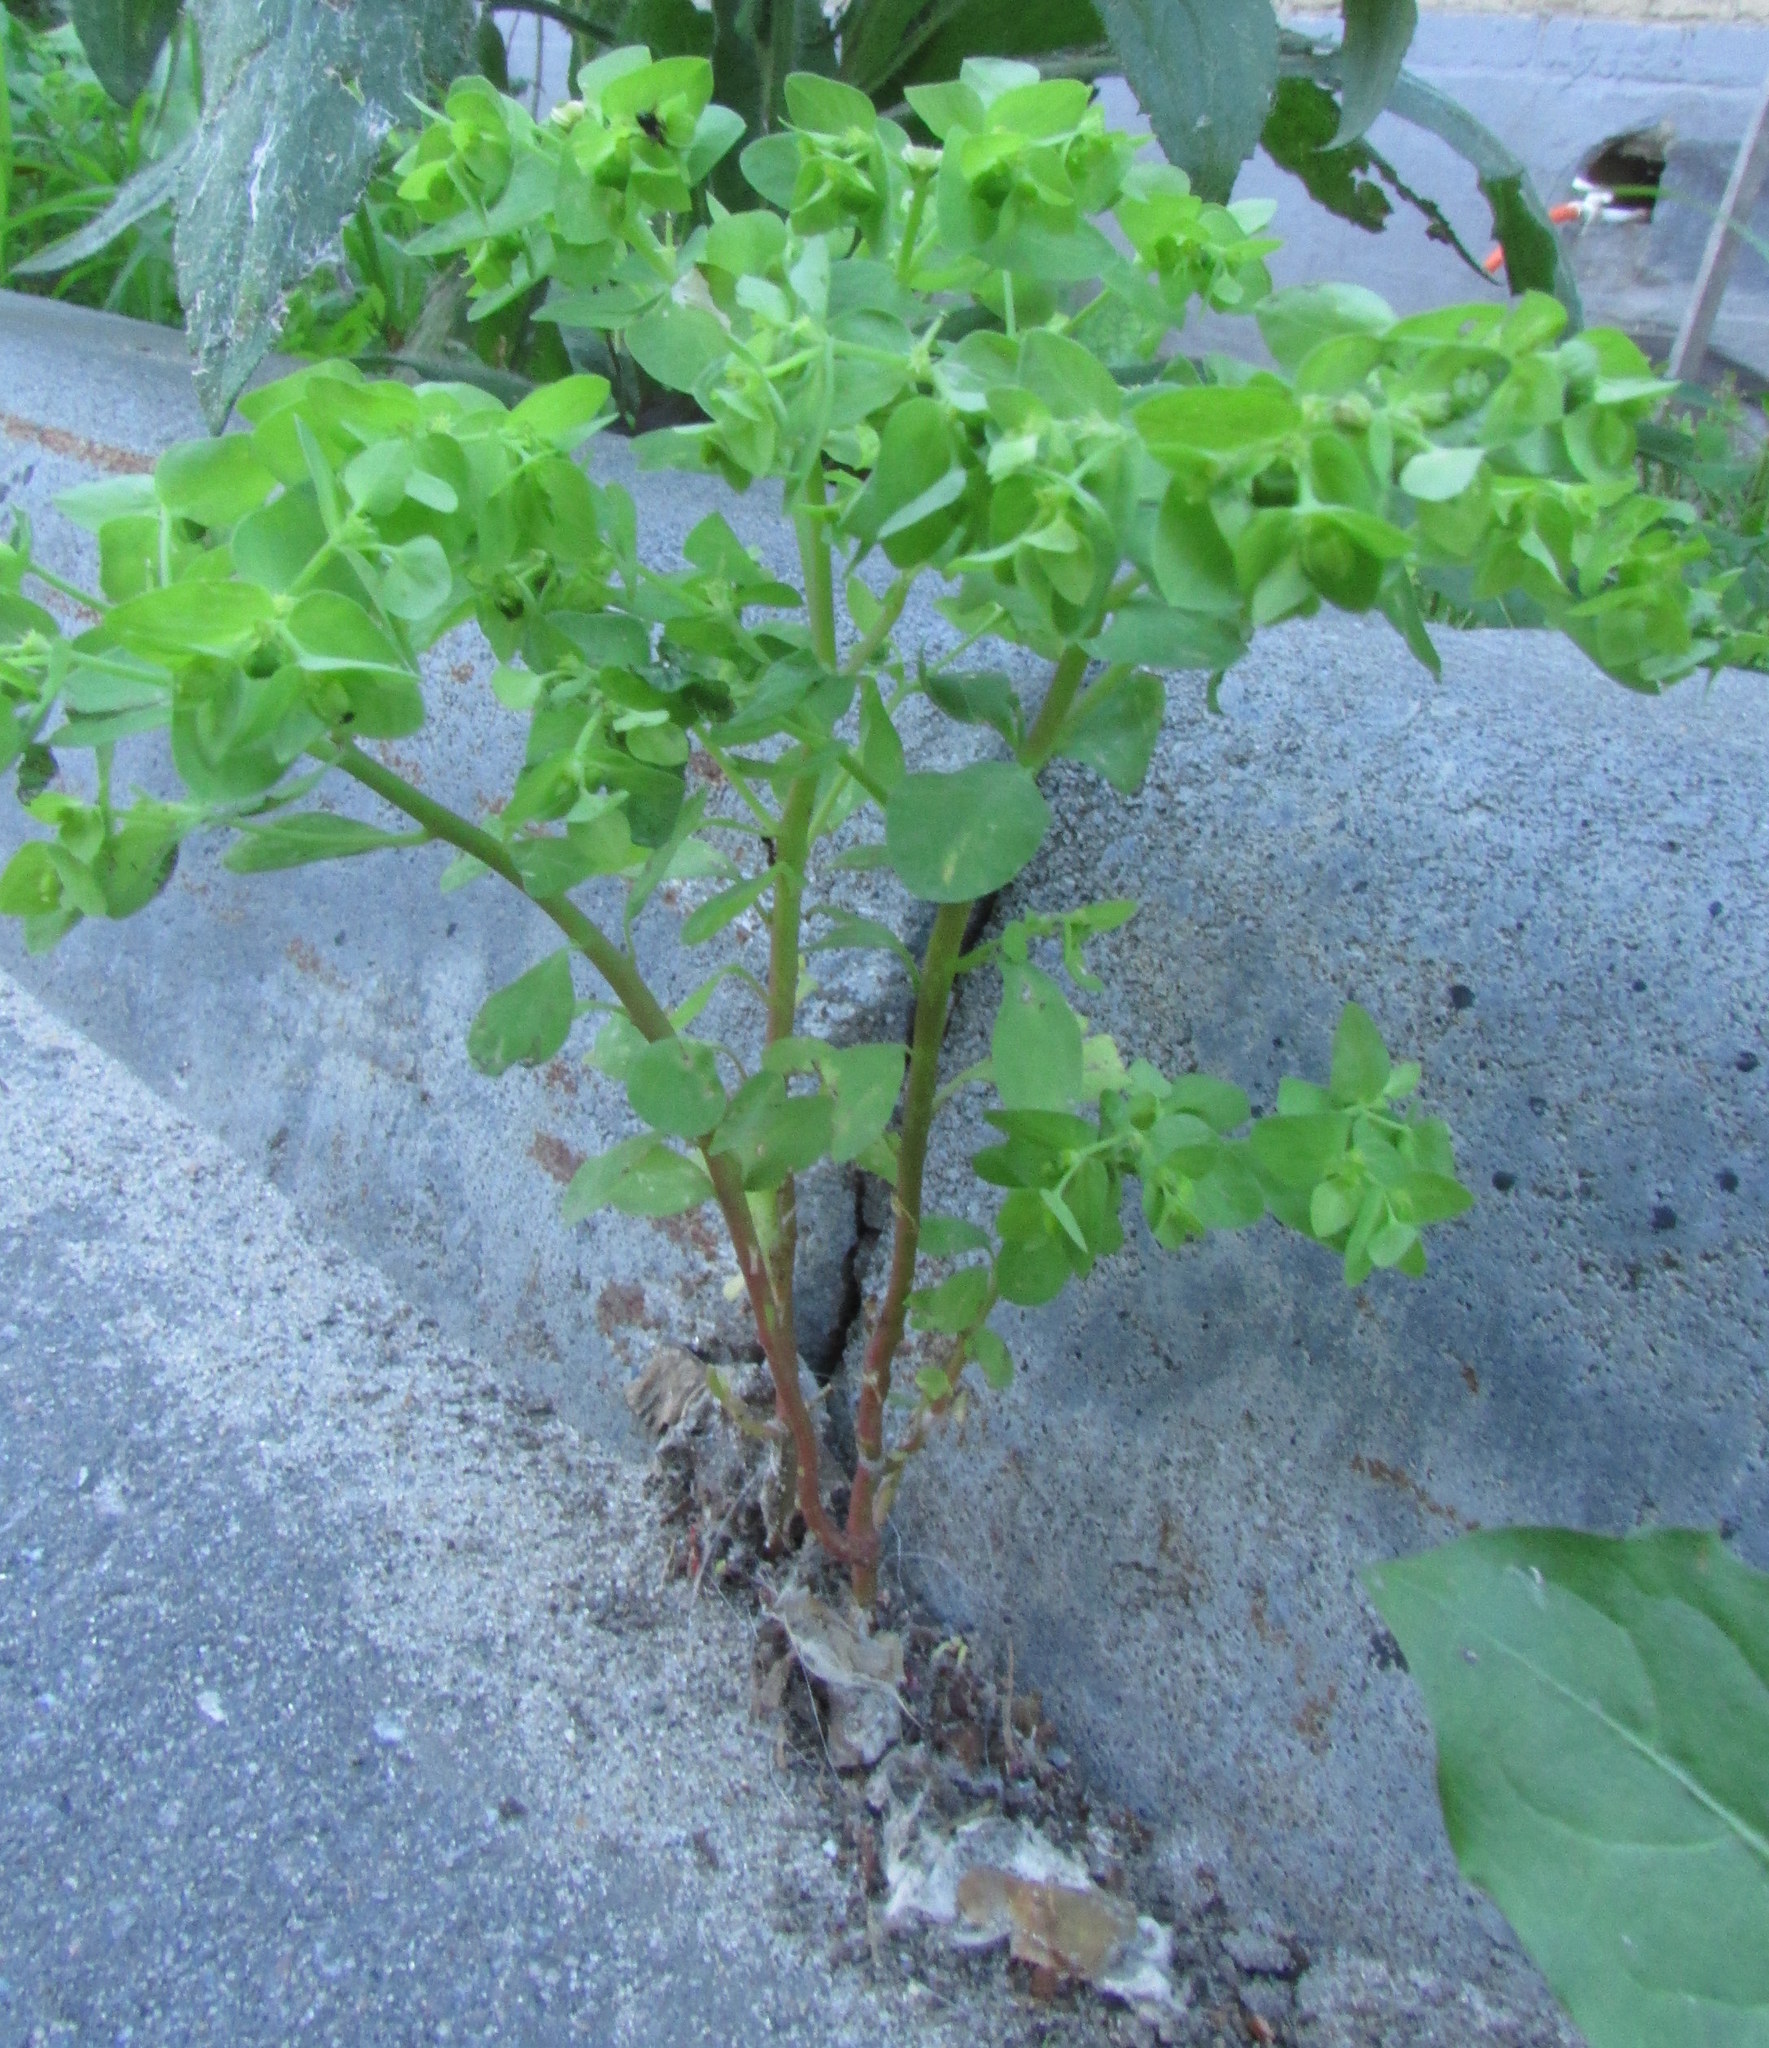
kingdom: Plantae
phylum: Tracheophyta
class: Magnoliopsida
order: Malpighiales
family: Euphorbiaceae
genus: Euphorbia
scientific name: Euphorbia peplus
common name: Petty spurge
